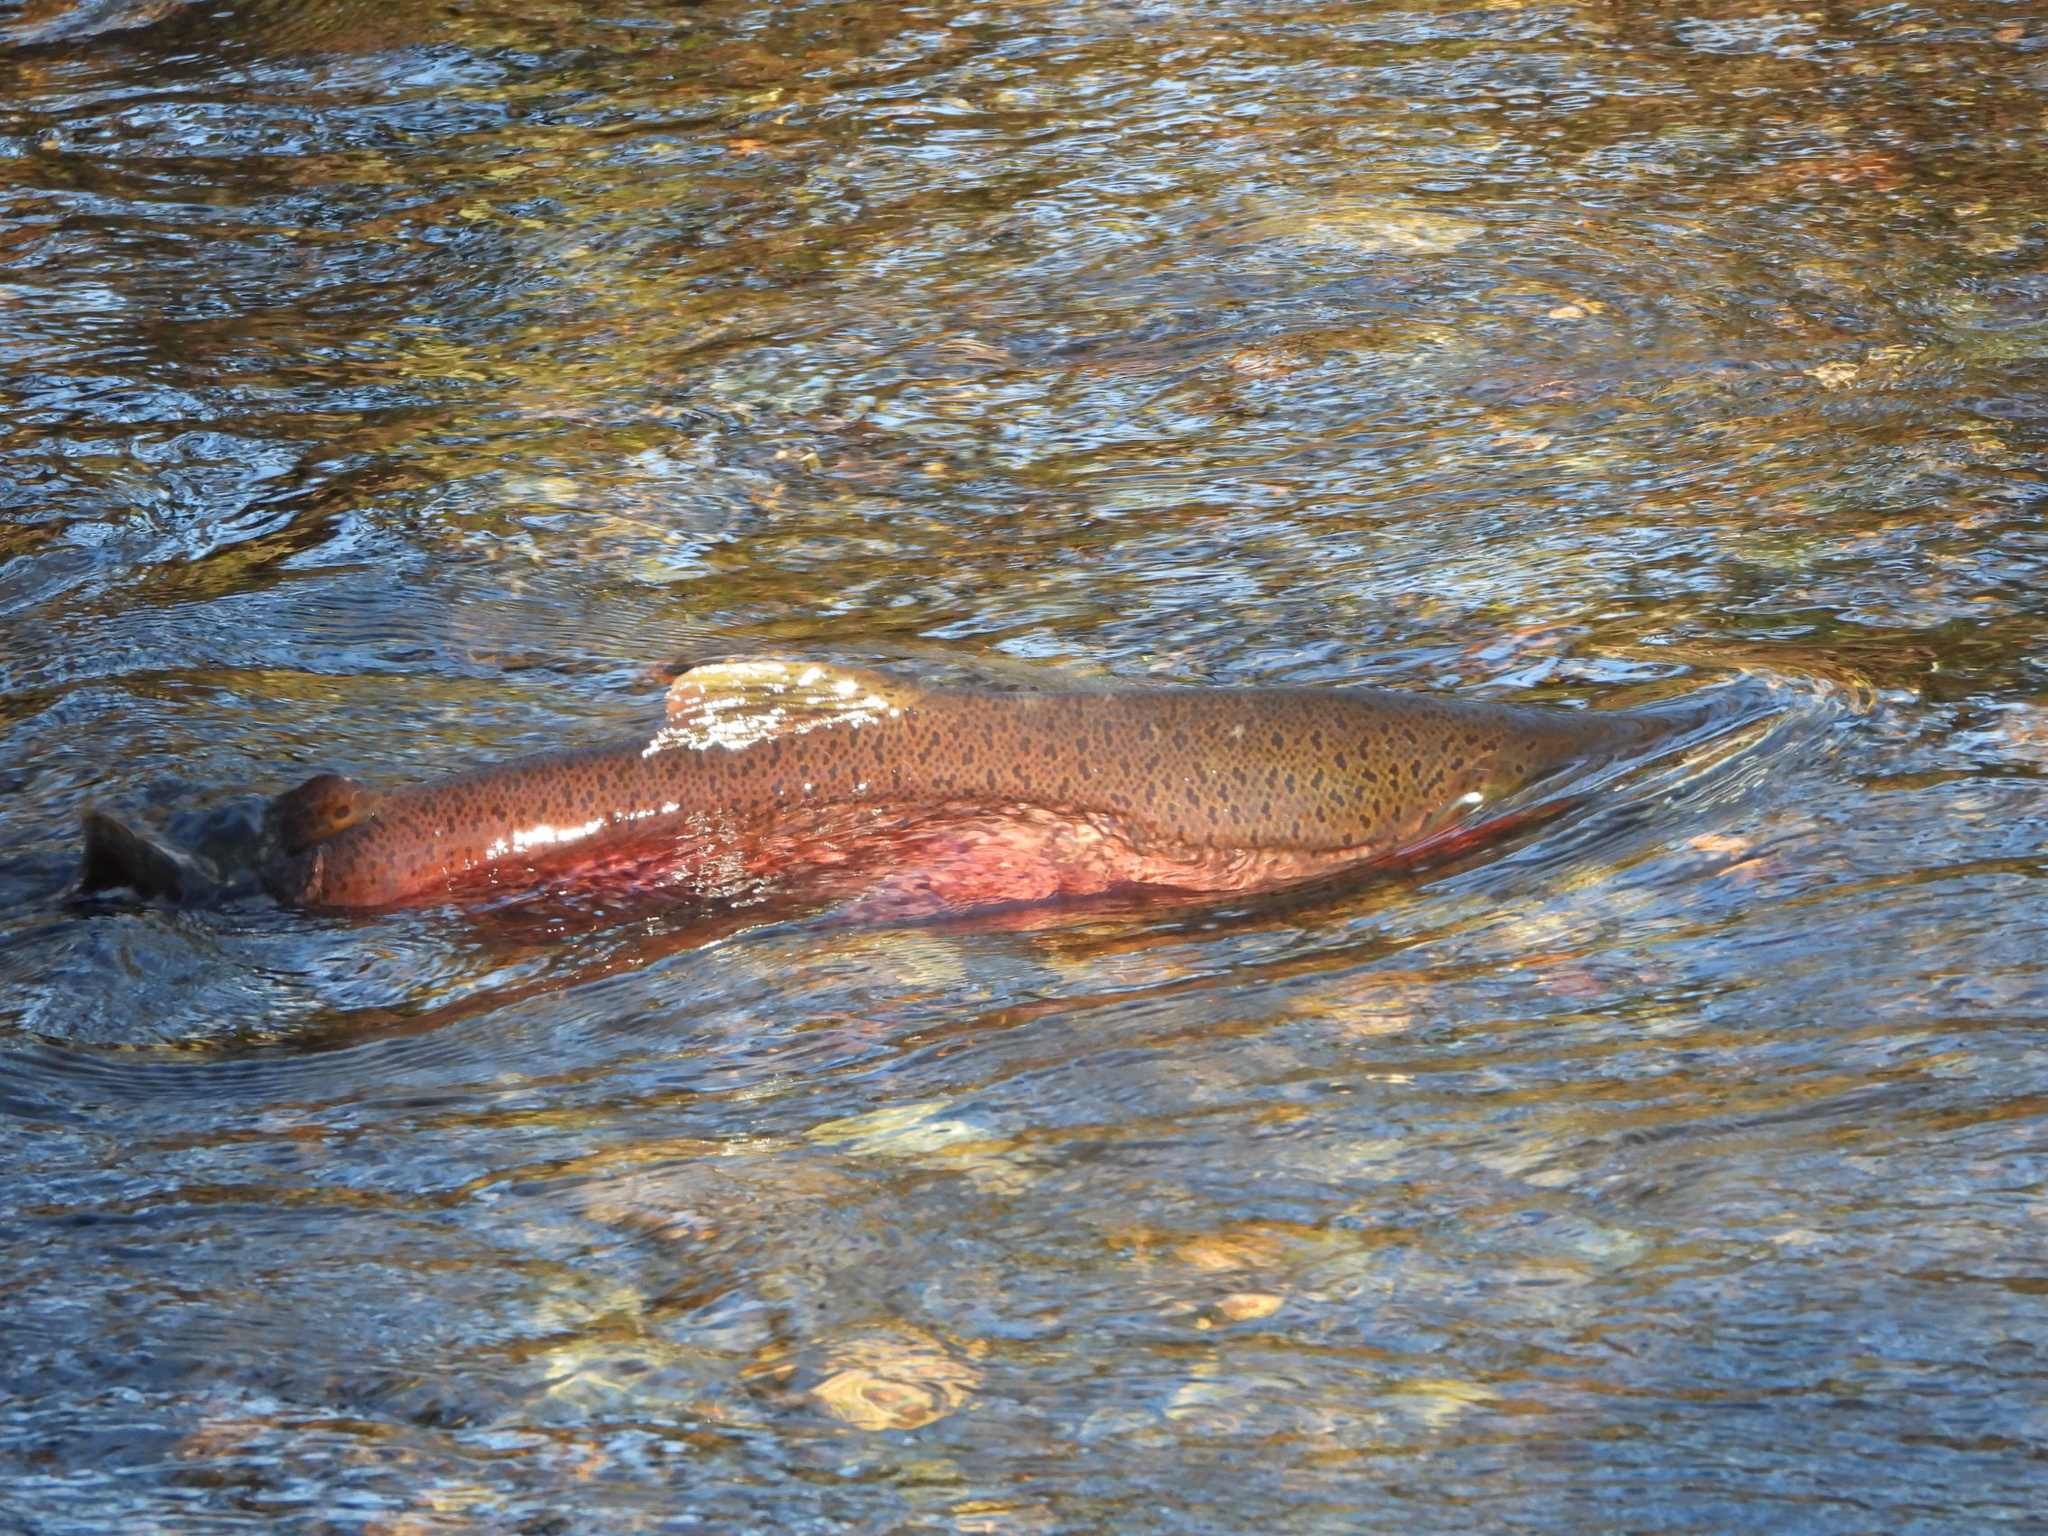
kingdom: Animalia
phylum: Chordata
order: Salmoniformes
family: Salmonidae
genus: Oncorhynchus
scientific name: Oncorhynchus tshawytscha
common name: Chinook salmon
